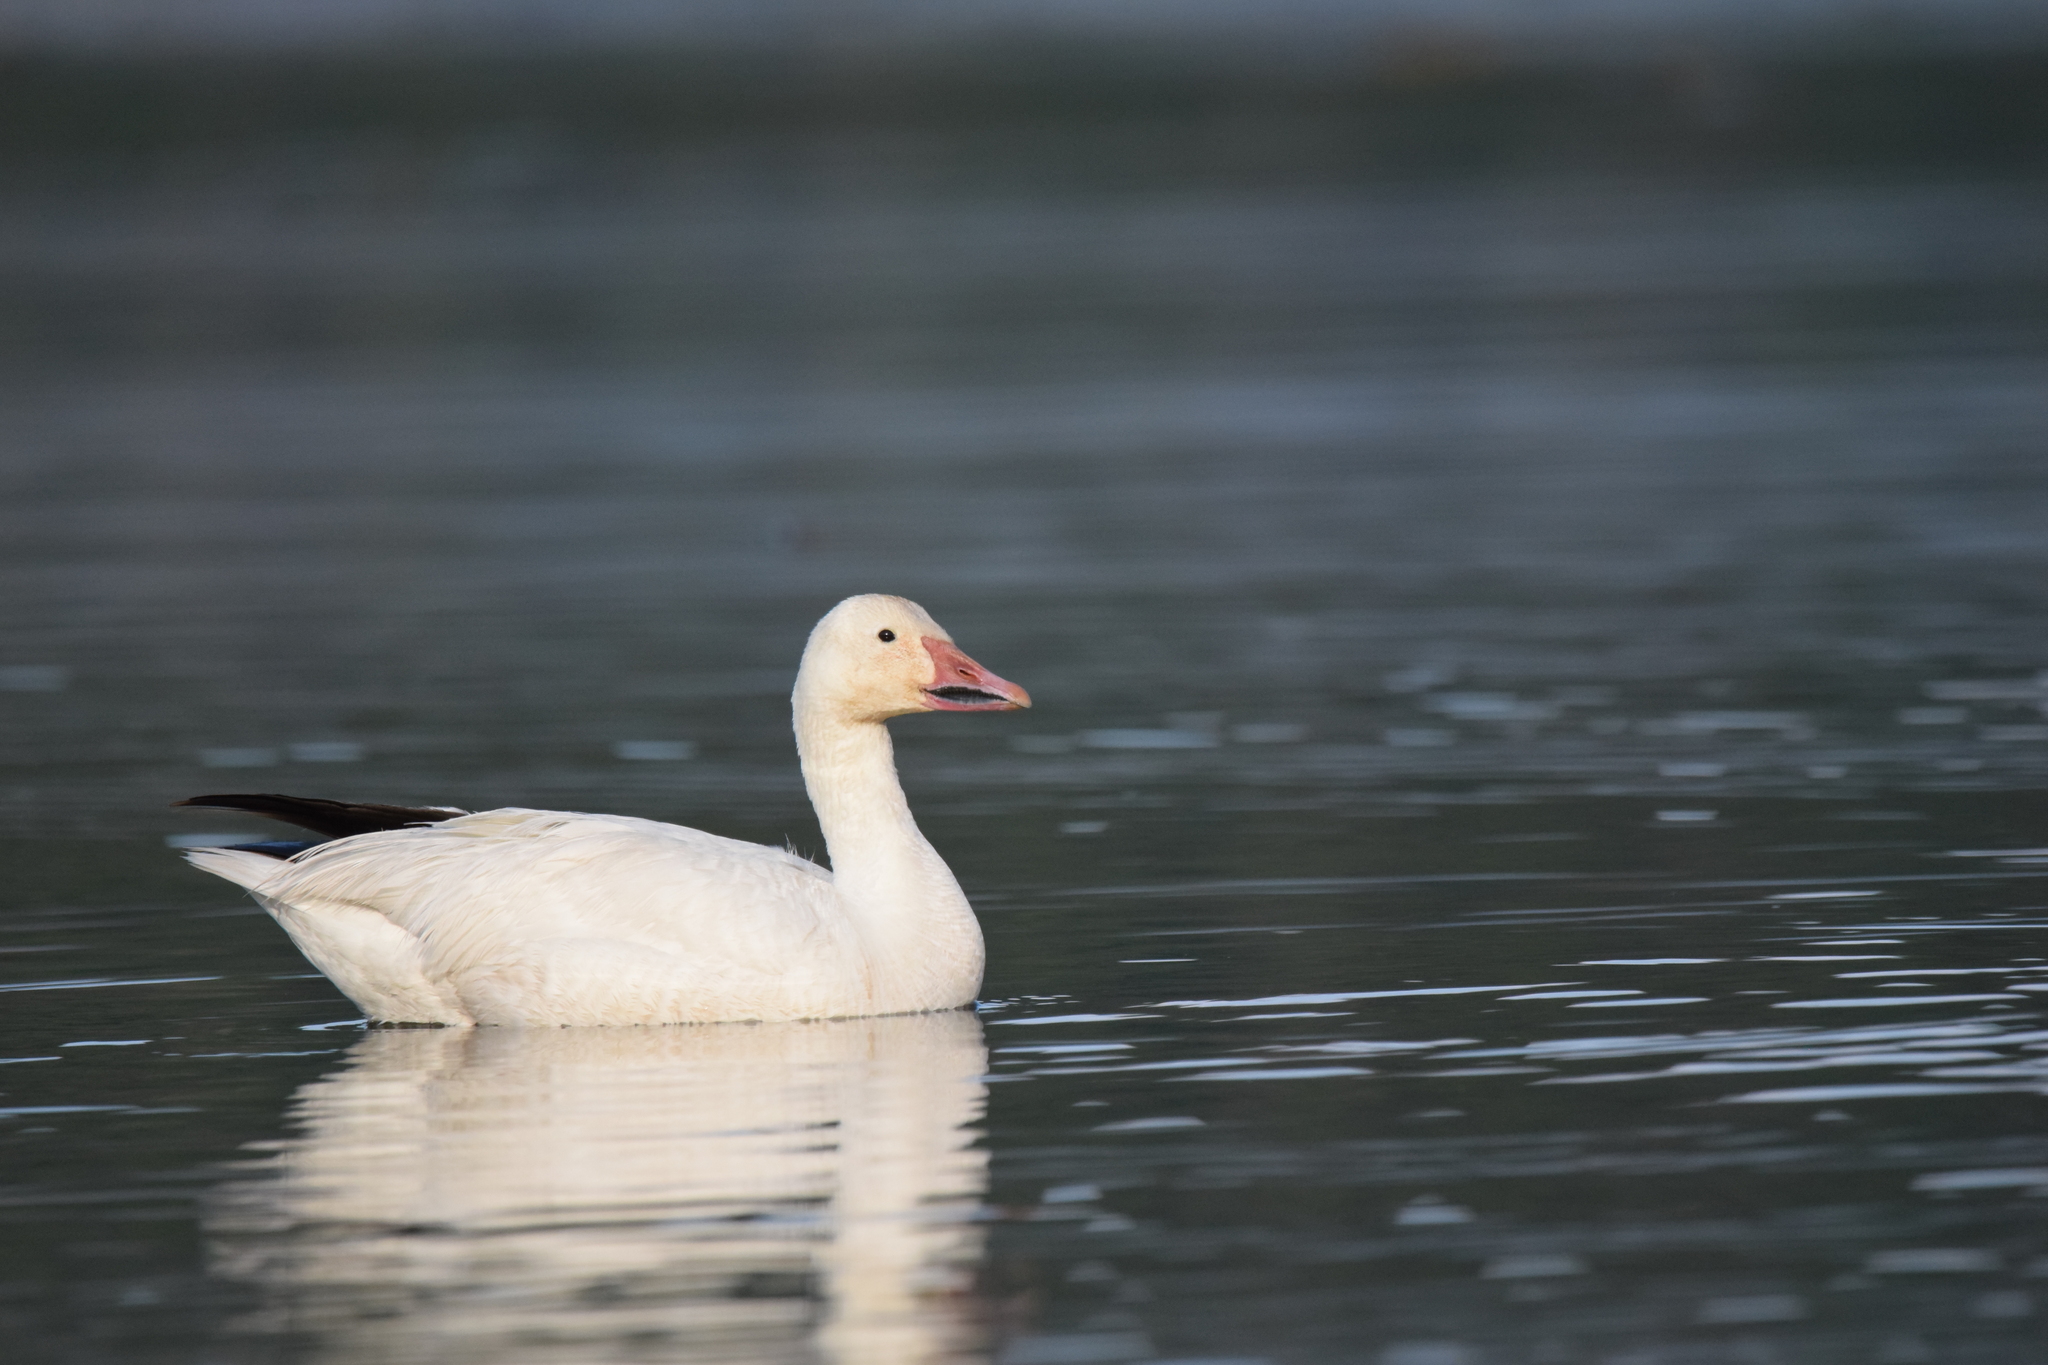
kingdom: Animalia
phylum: Chordata
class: Aves
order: Anseriformes
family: Anatidae
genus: Anser
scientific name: Anser caerulescens
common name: Snow goose
